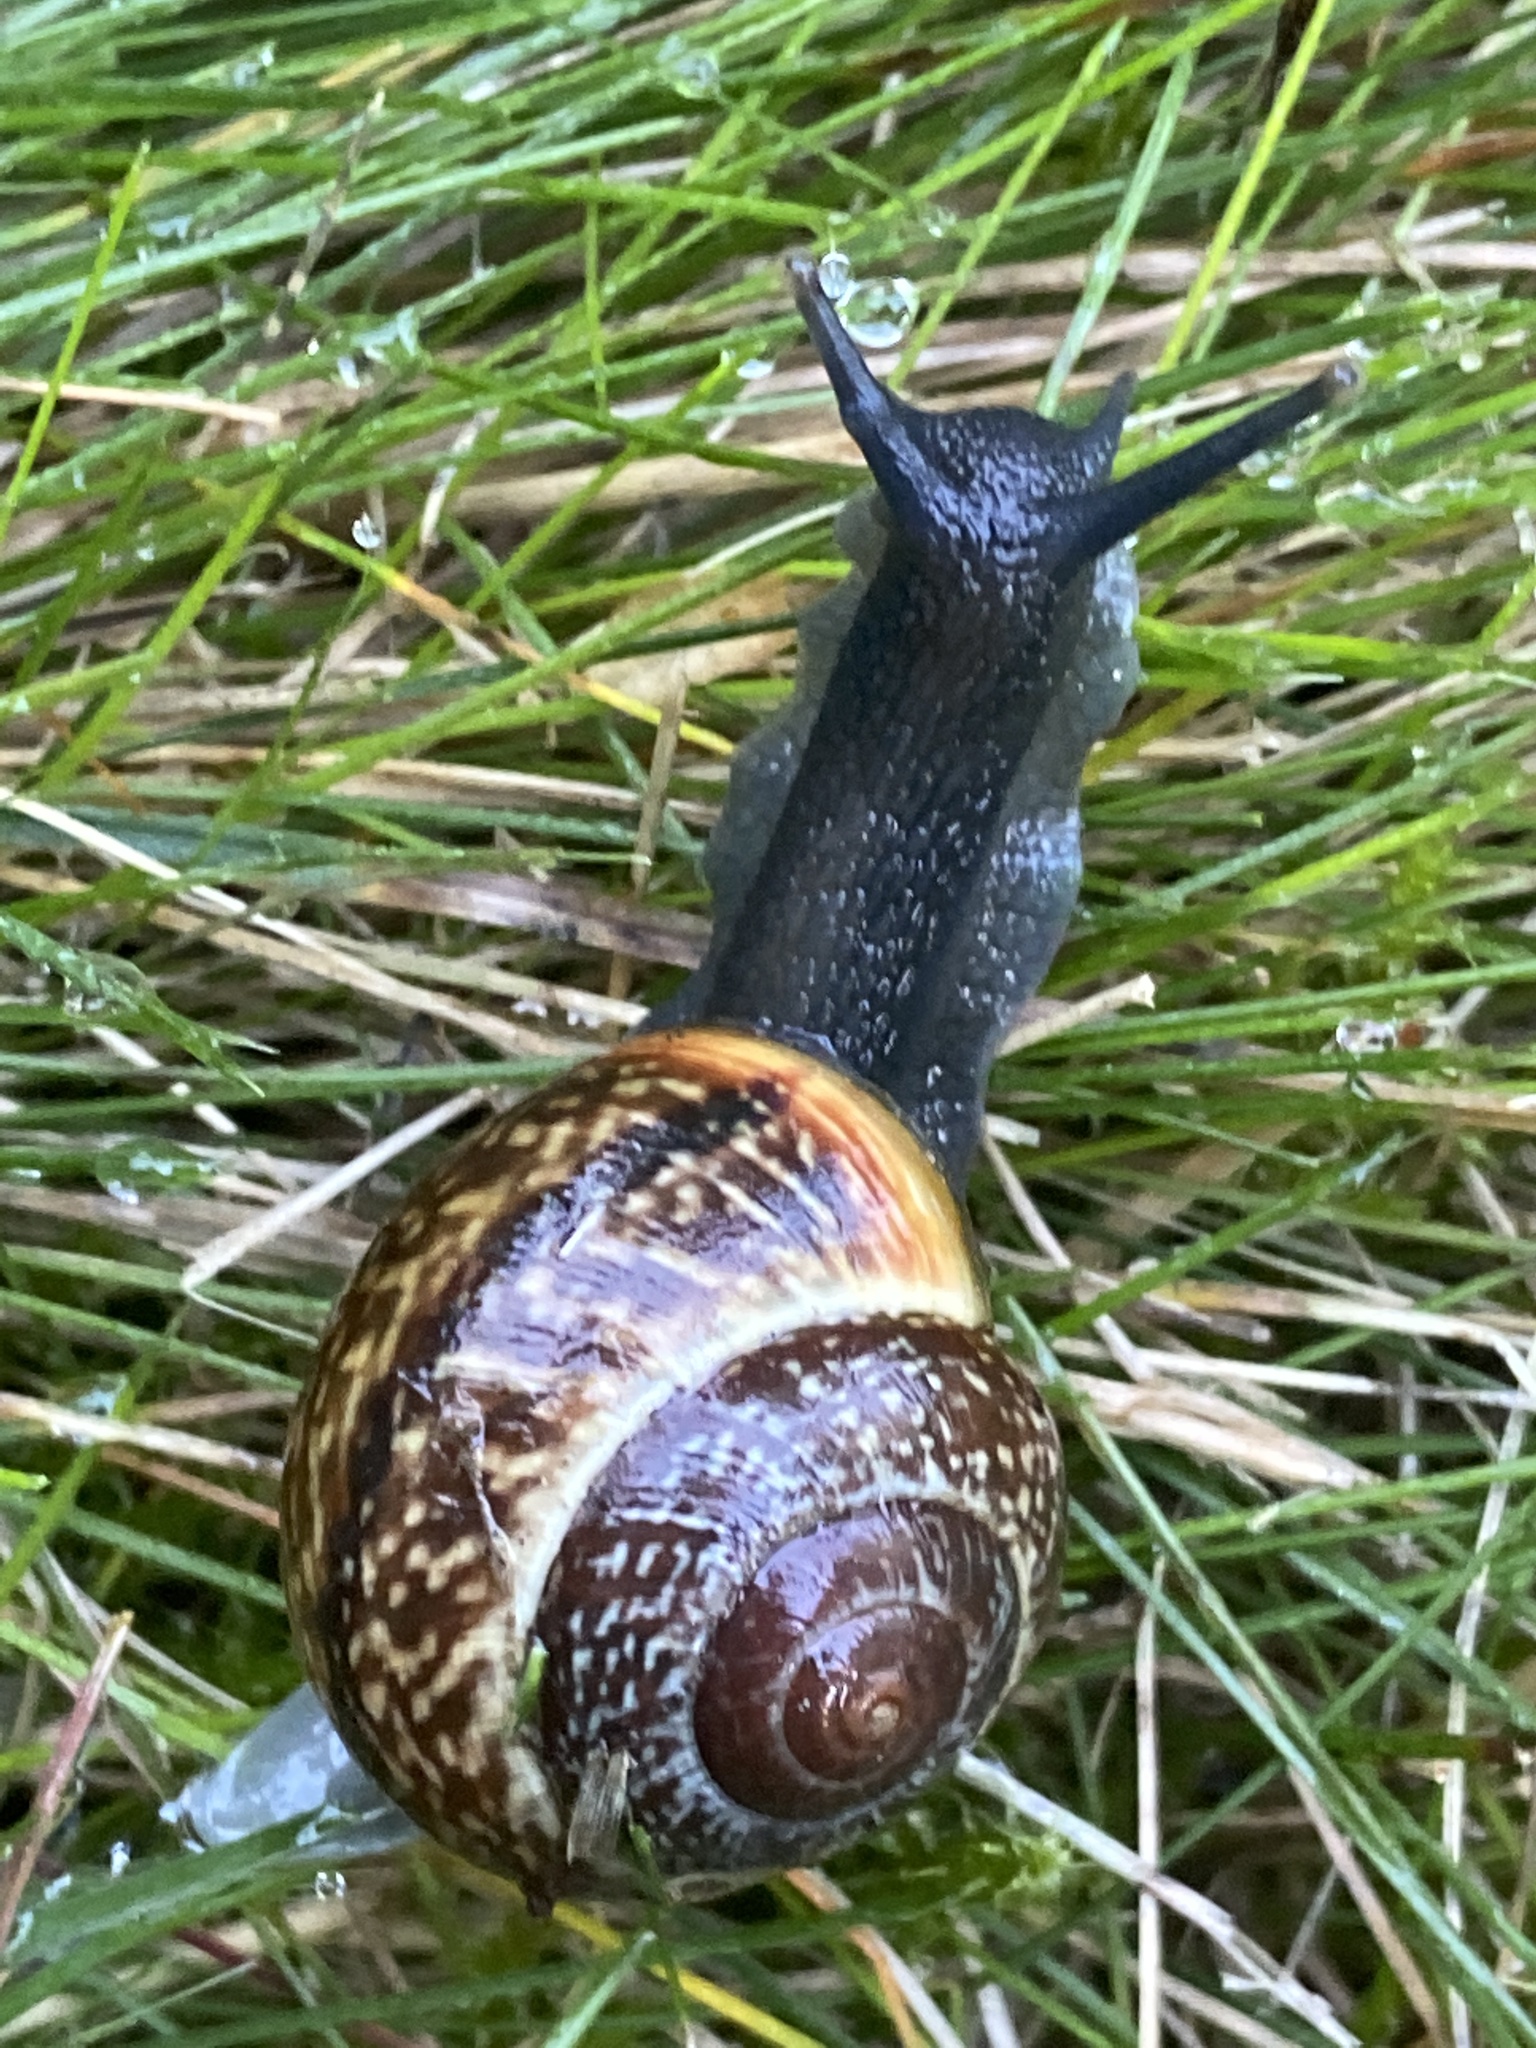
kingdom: Animalia
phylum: Mollusca
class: Gastropoda
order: Stylommatophora
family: Helicidae
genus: Arianta
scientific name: Arianta arbustorum
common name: Copse snail
